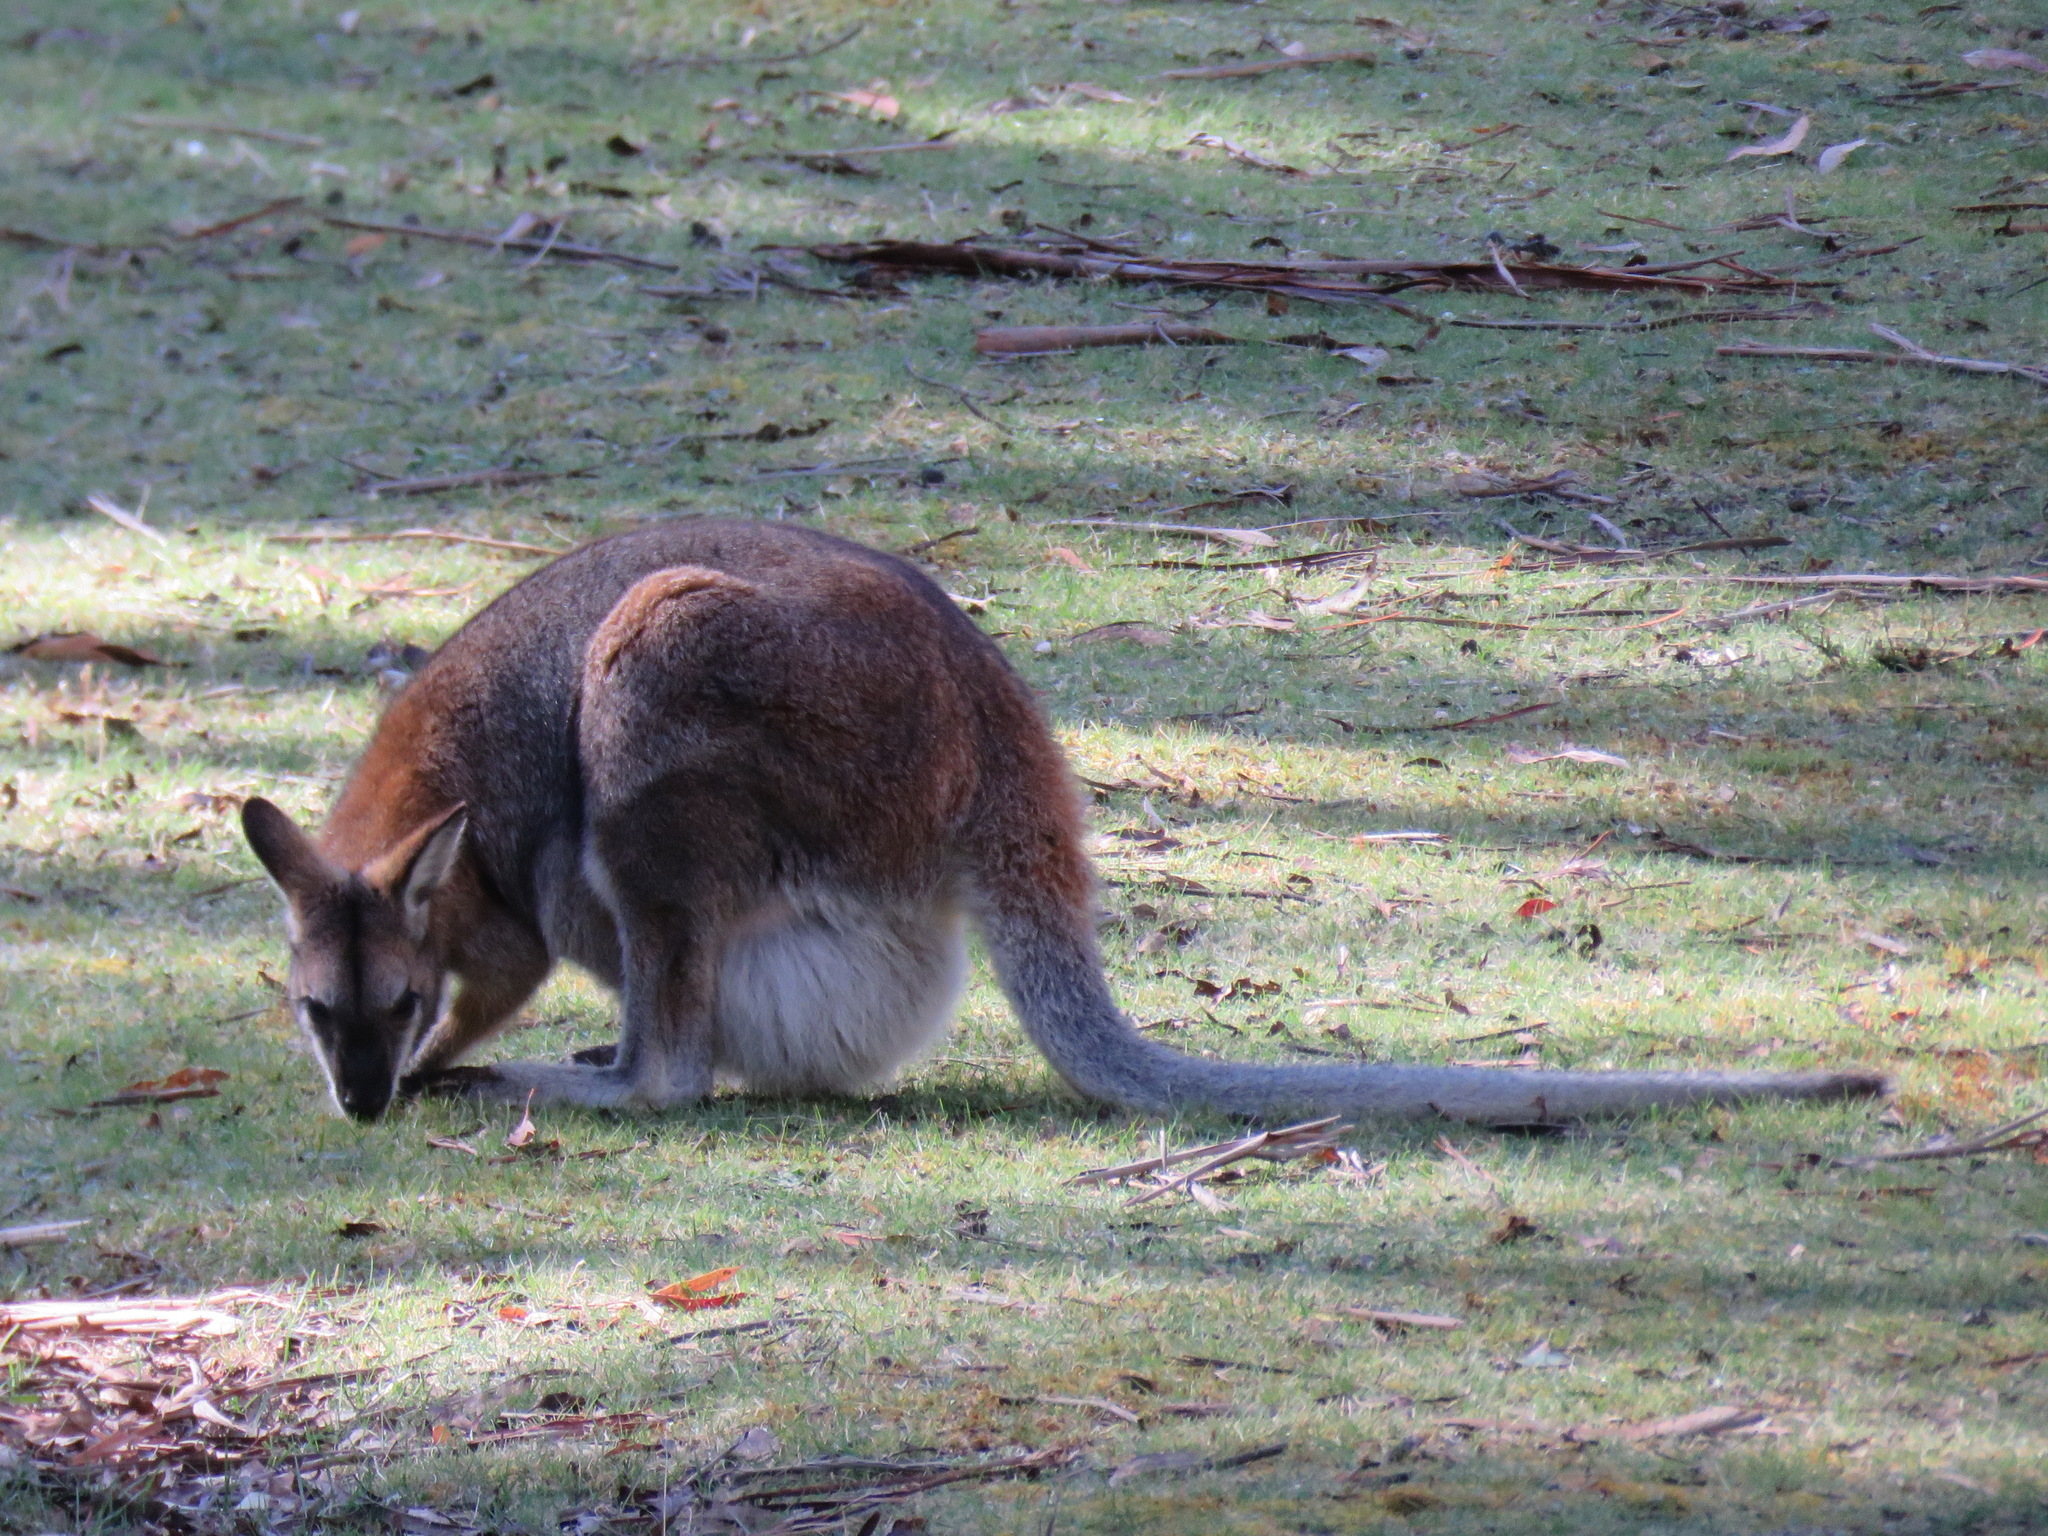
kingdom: Animalia
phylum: Chordata
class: Mammalia
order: Diprotodontia
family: Macropodidae
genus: Notamacropus
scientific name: Notamacropus rufogriseus
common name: Red-necked wallaby
